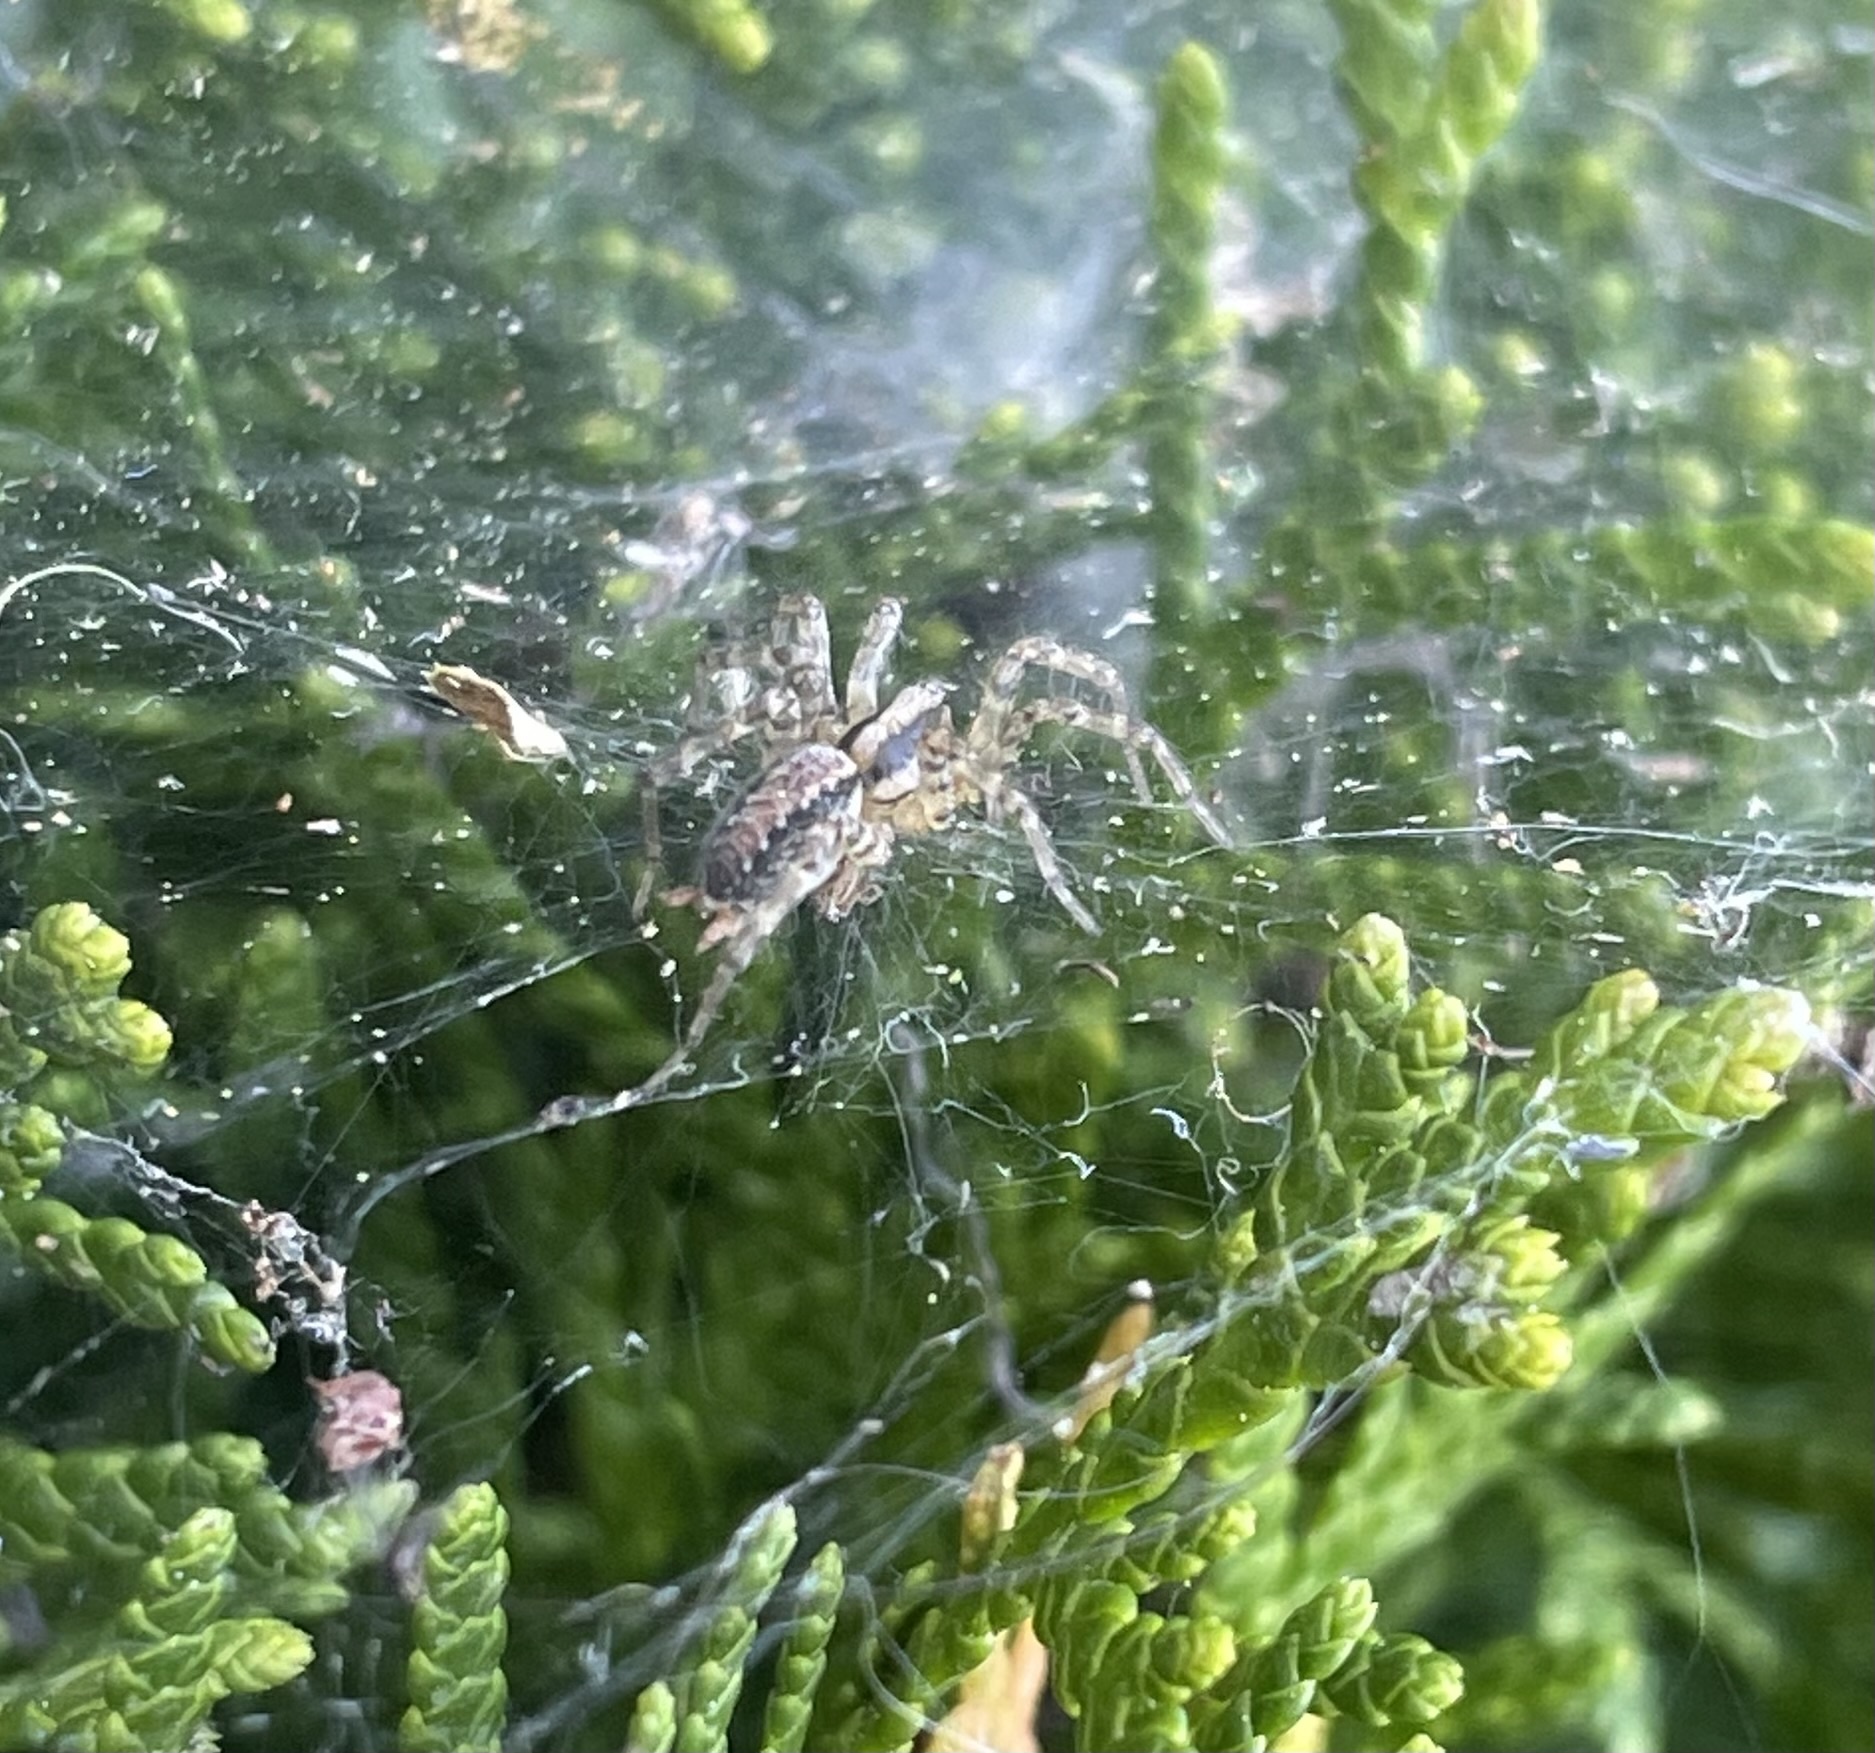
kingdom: Animalia
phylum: Arthropoda
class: Arachnida
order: Araneae
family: Agelenidae
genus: Hololena
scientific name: Hololena
